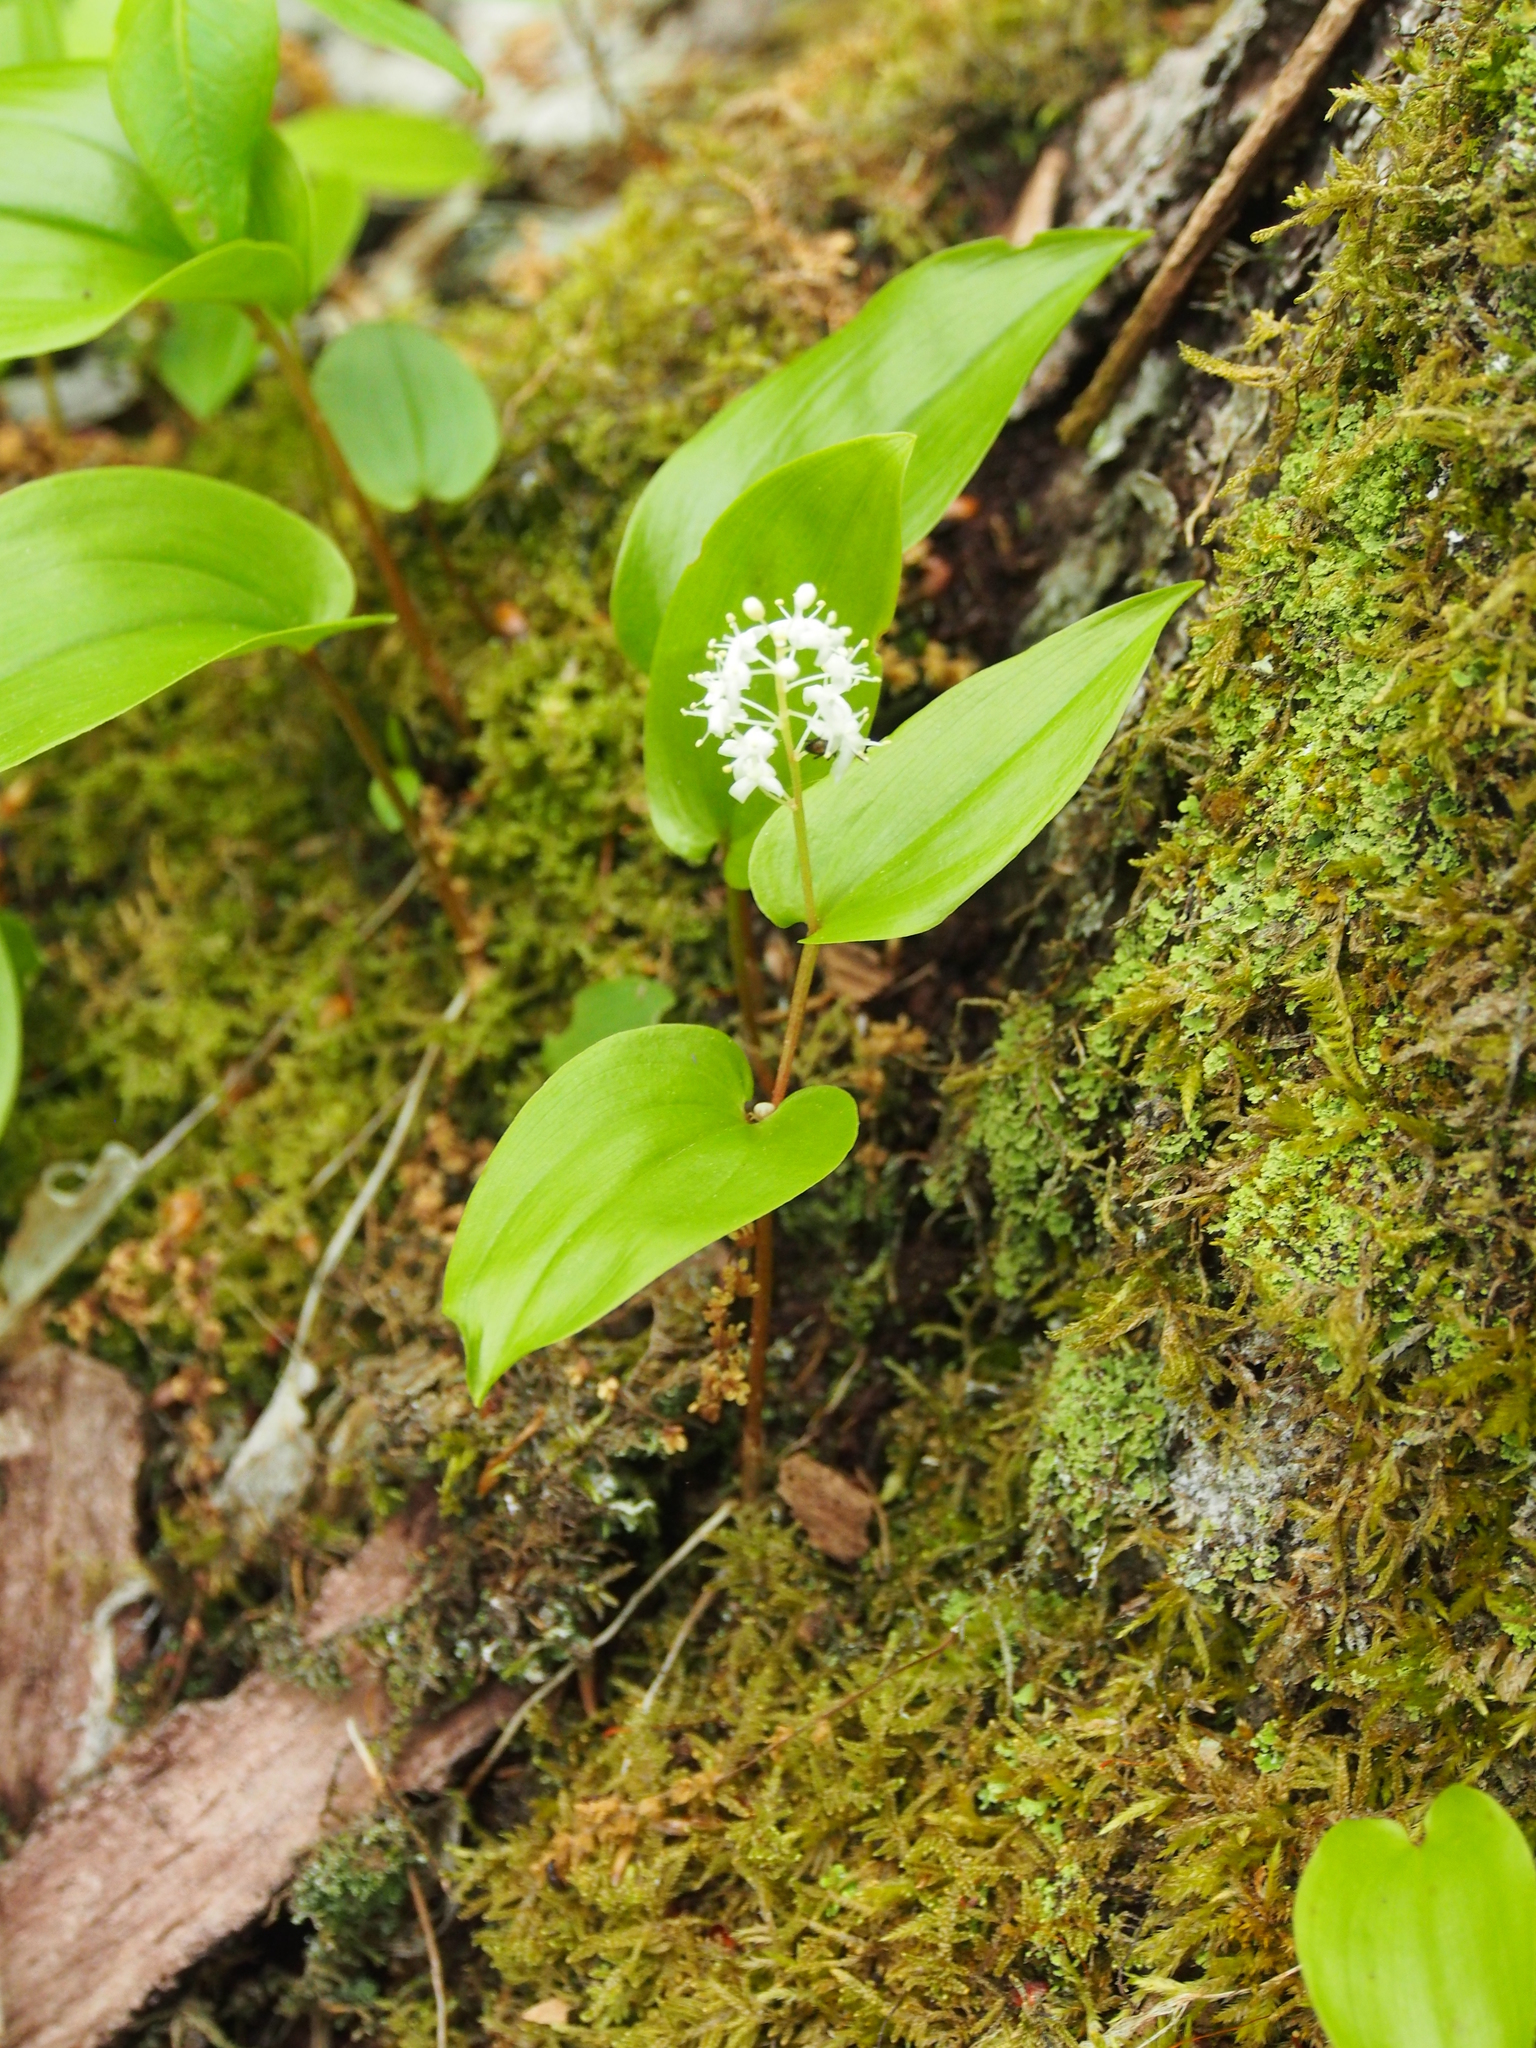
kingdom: Plantae
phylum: Tracheophyta
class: Liliopsida
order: Asparagales
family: Asparagaceae
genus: Maianthemum
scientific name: Maianthemum canadense
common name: False lily-of-the-valley
